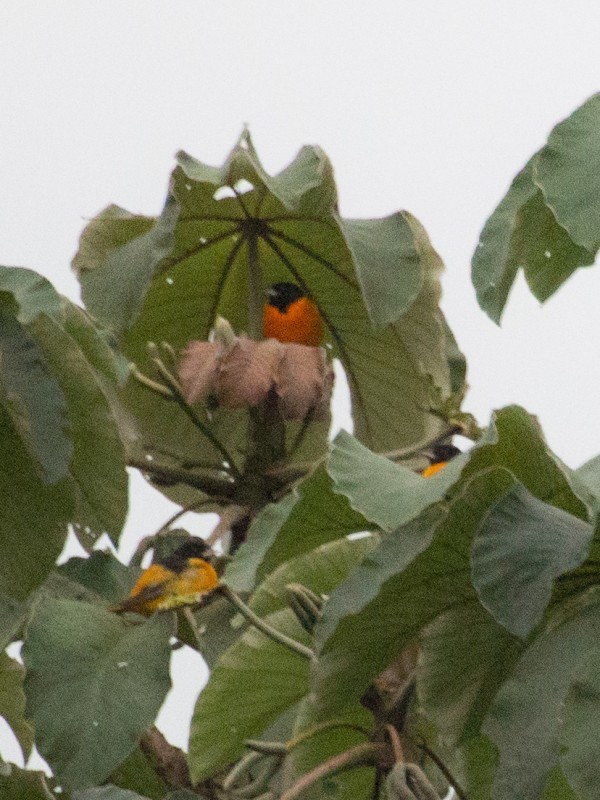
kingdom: Animalia
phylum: Chordata
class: Aves
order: Passeriformes
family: Icteridae
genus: Icterus
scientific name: Icterus galbula
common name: Baltimore oriole
